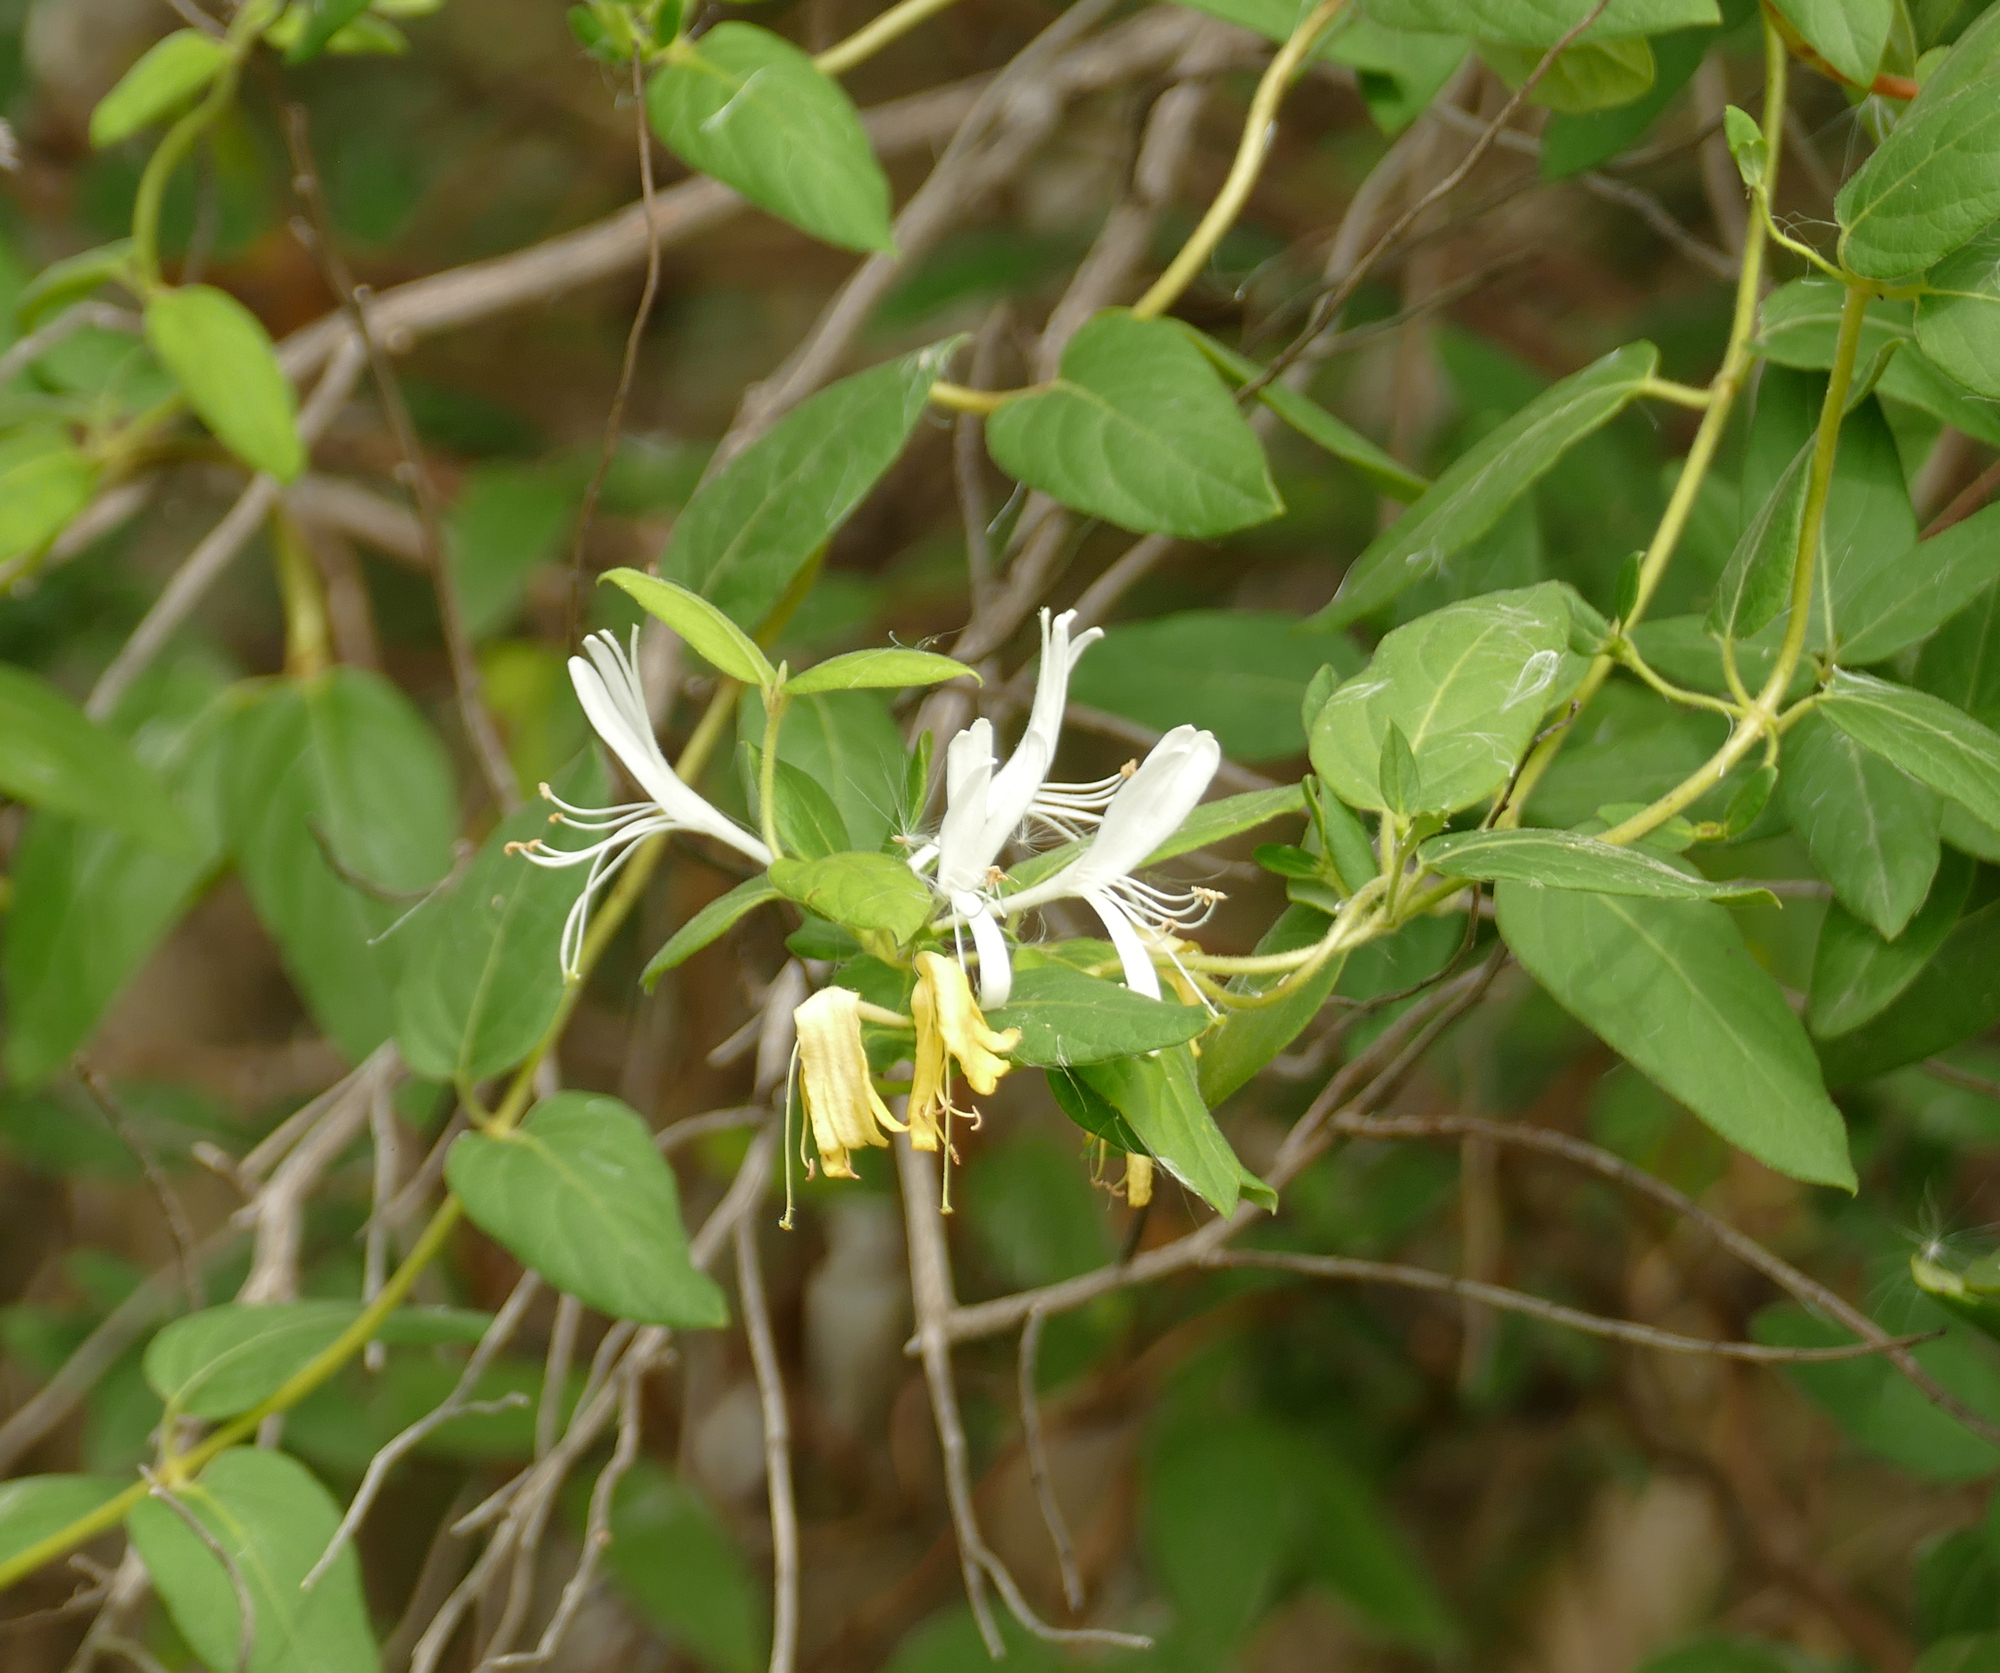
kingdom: Plantae
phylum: Tracheophyta
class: Magnoliopsida
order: Dipsacales
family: Caprifoliaceae
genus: Lonicera
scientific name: Lonicera japonica
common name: Japanese honeysuckle
